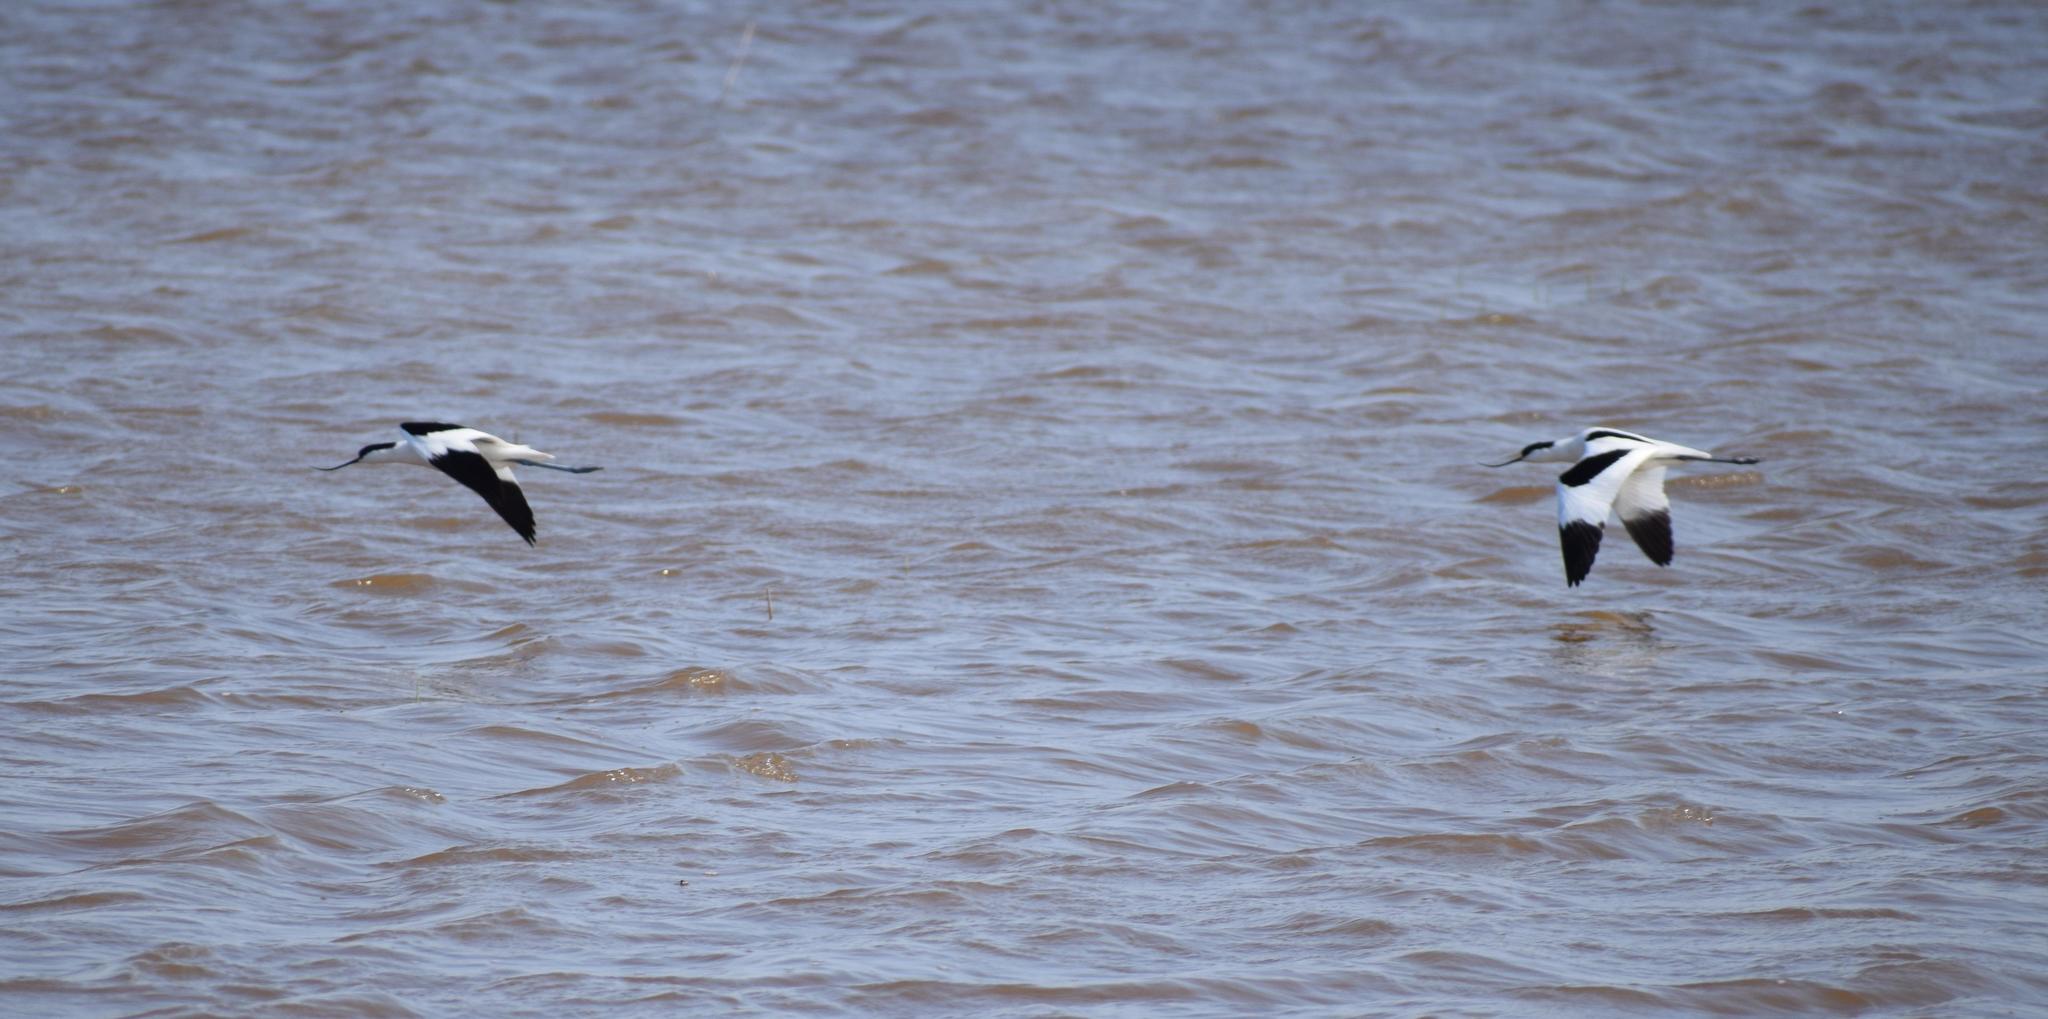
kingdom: Animalia
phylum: Chordata
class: Aves
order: Charadriiformes
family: Recurvirostridae
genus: Recurvirostra
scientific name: Recurvirostra avosetta
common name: Pied avocet
